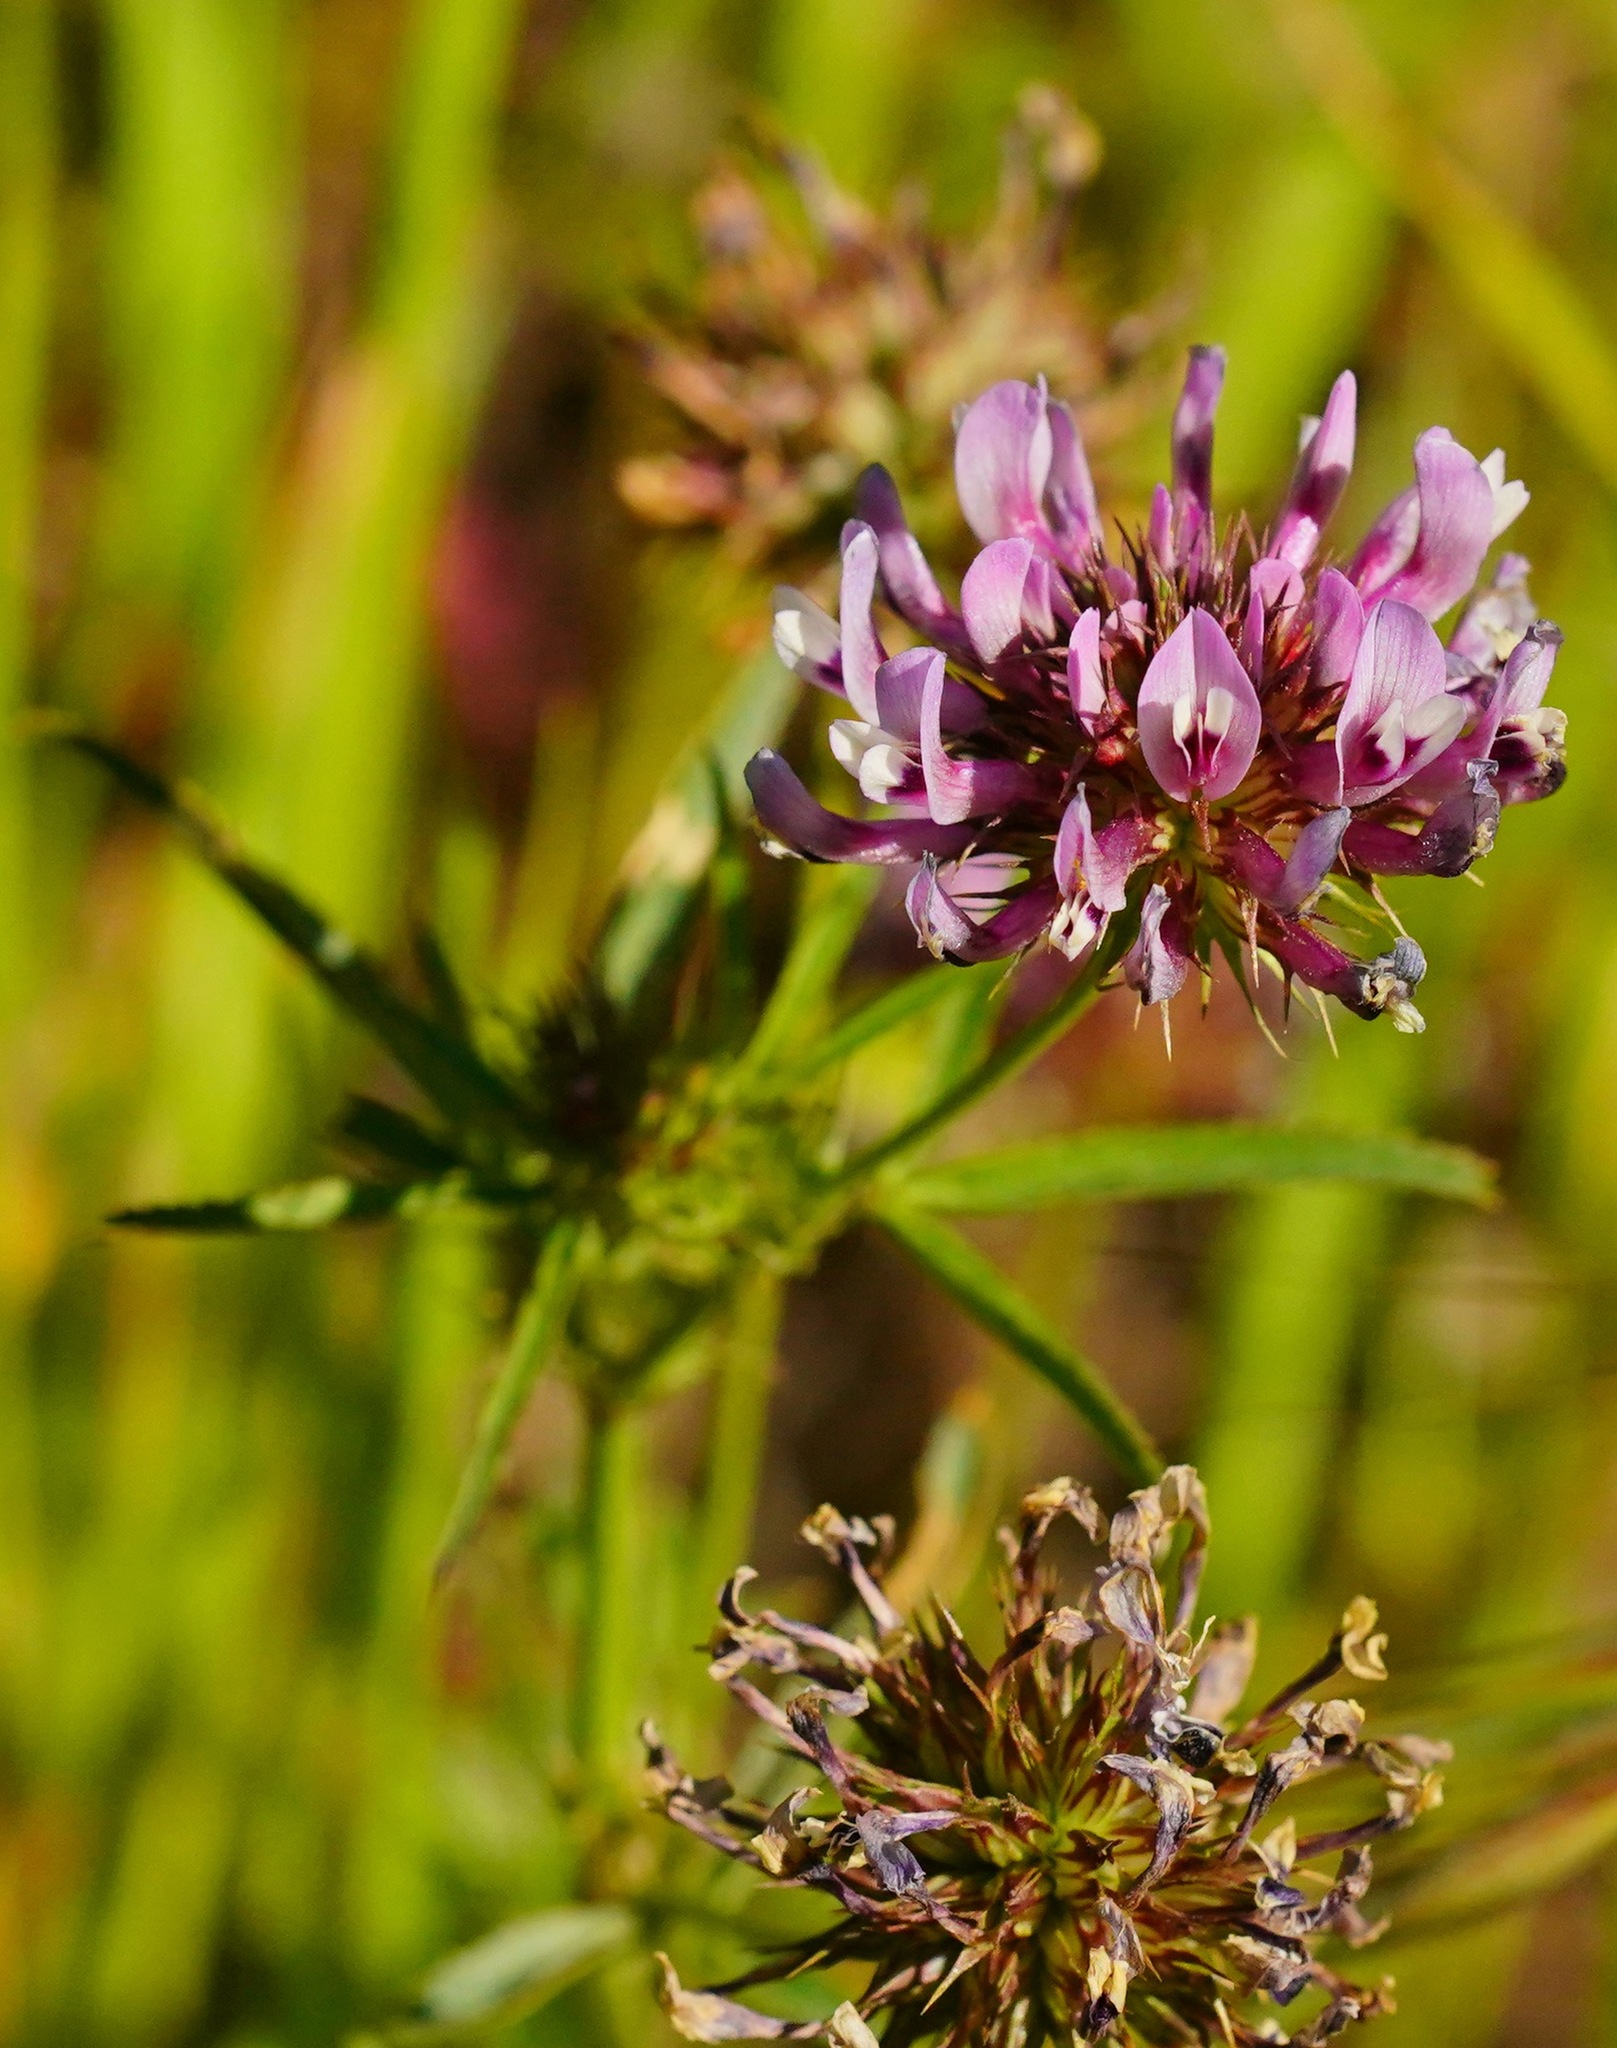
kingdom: Plantae
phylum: Tracheophyta
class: Magnoliopsida
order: Fabales
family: Fabaceae
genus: Trifolium
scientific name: Trifolium willdenovii
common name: Tomcat clover
